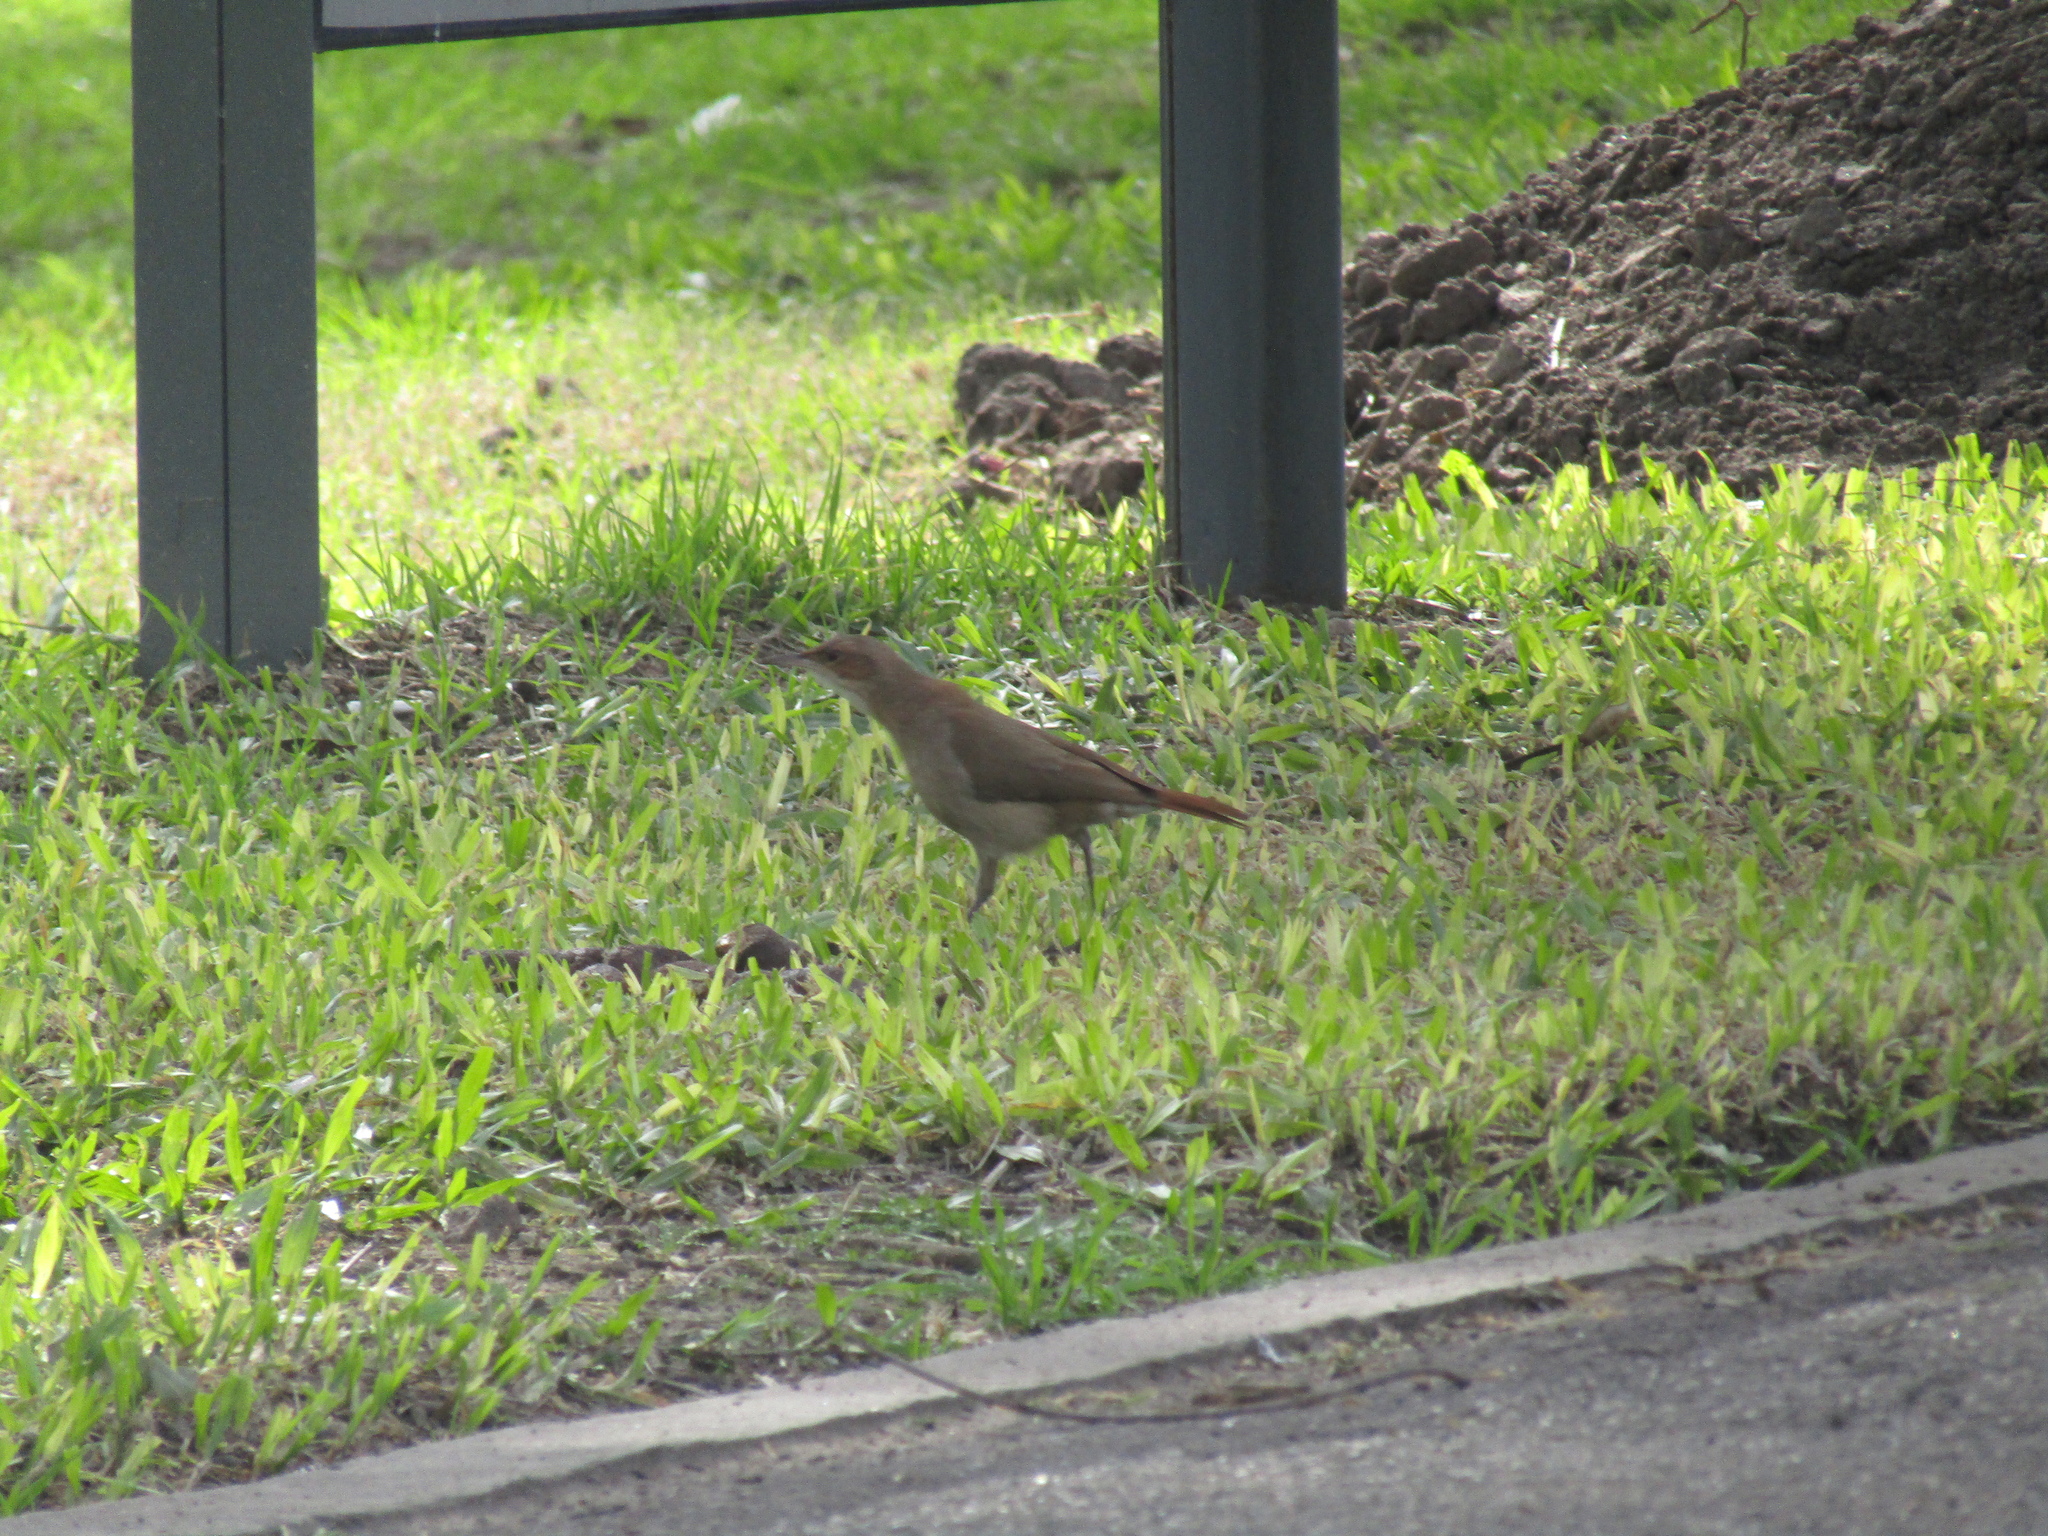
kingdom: Animalia
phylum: Chordata
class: Aves
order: Passeriformes
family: Furnariidae
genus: Furnarius
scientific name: Furnarius rufus
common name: Rufous hornero
